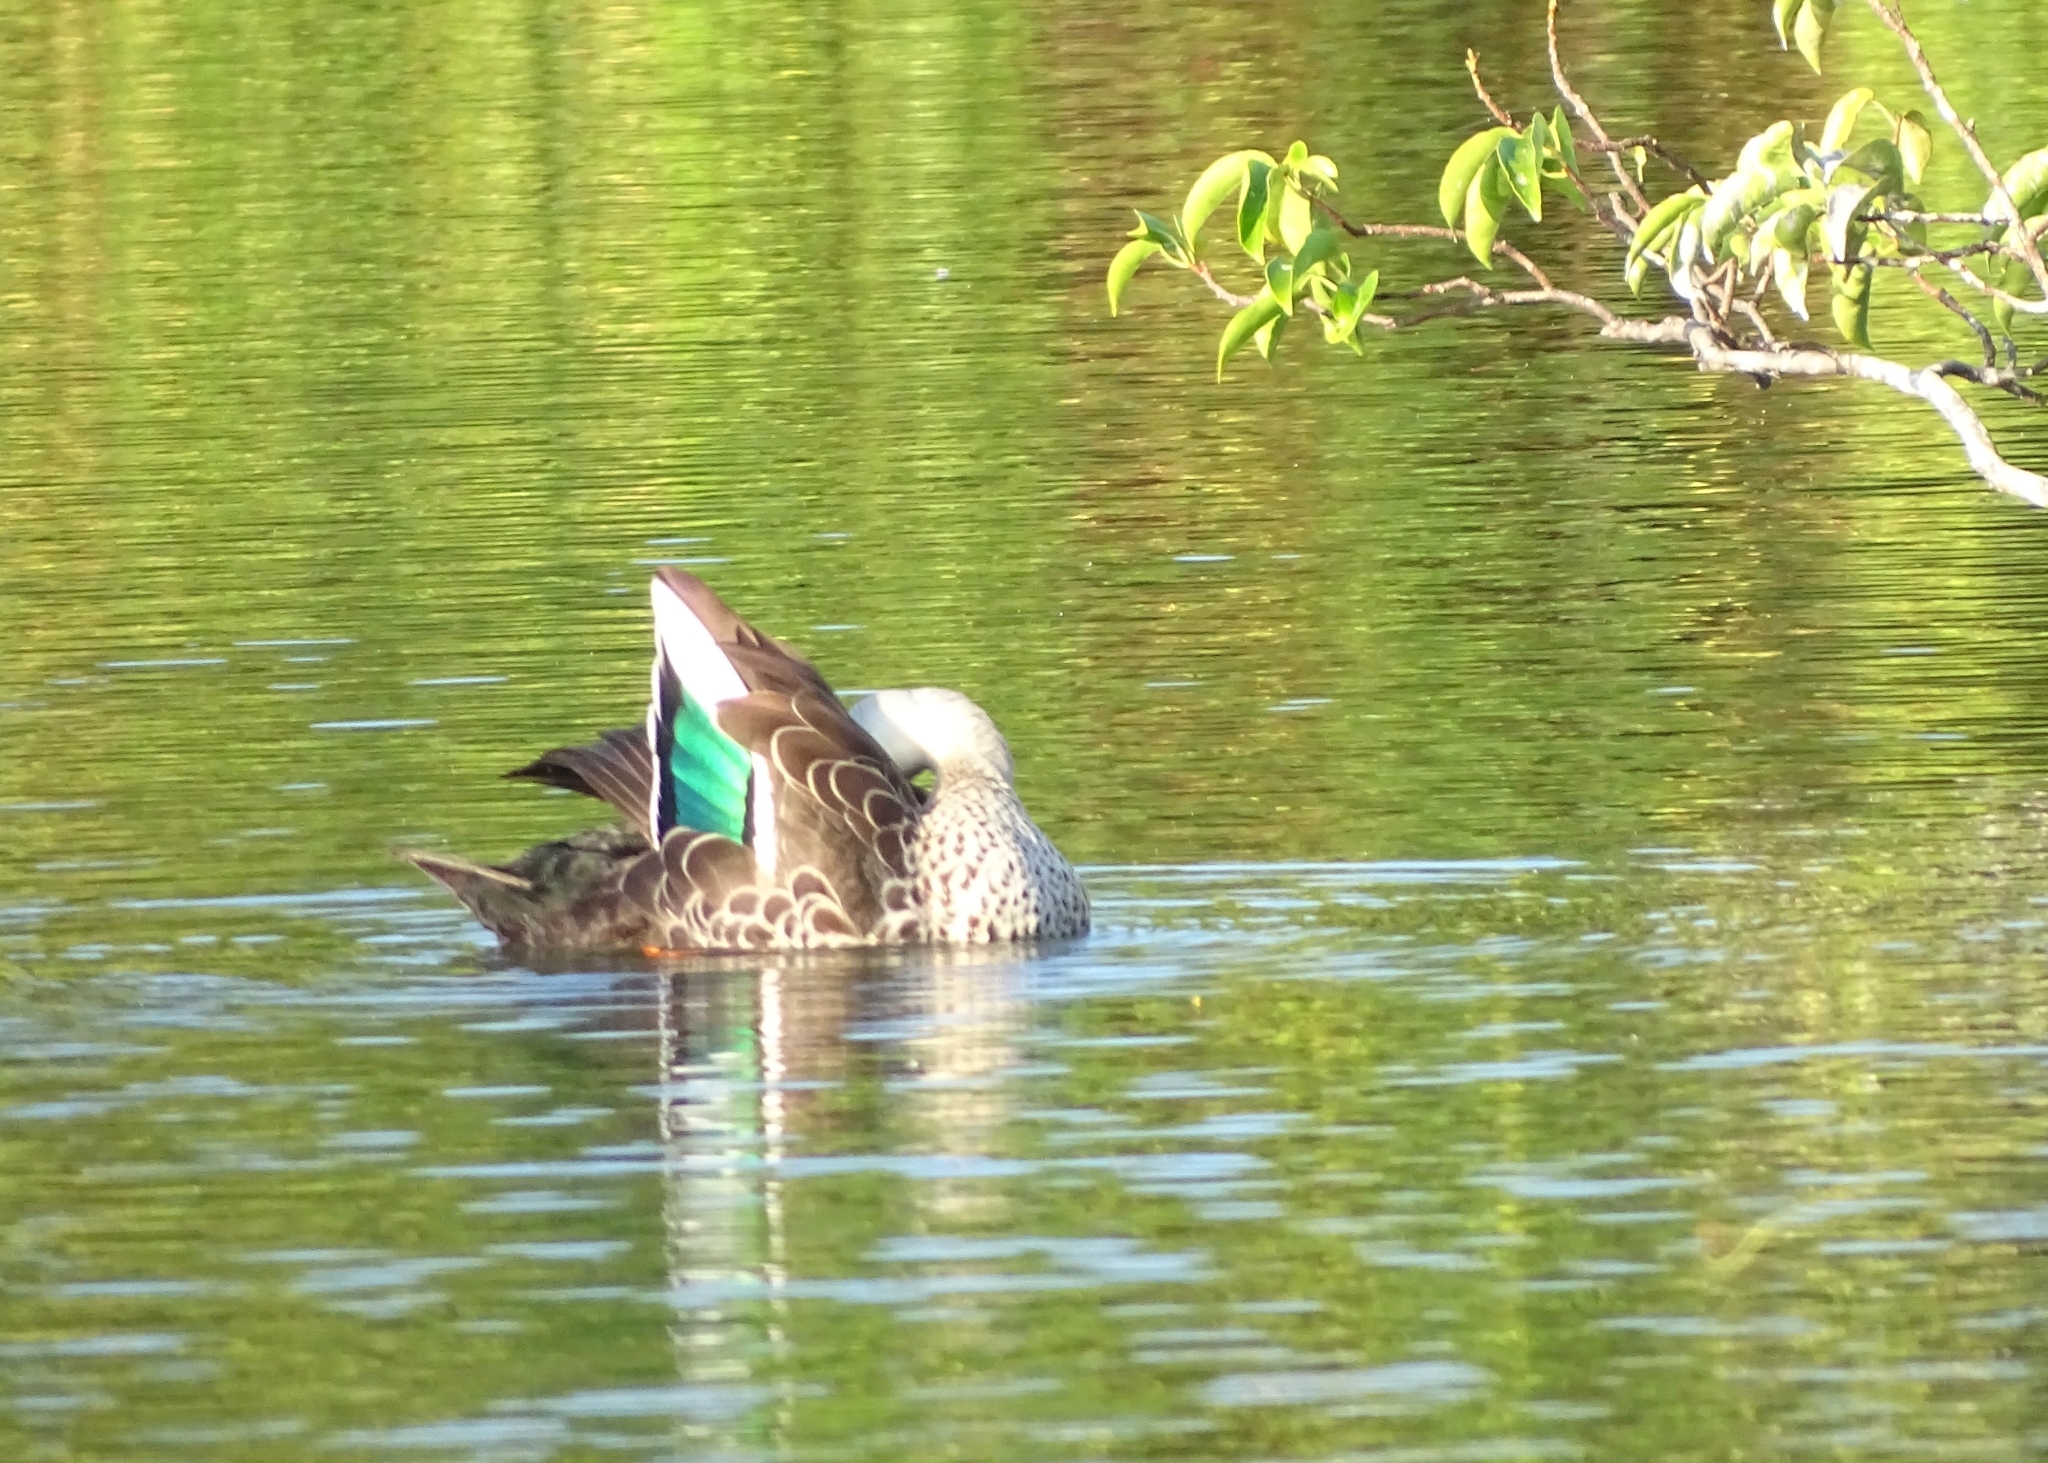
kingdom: Animalia
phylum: Chordata
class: Aves
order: Anseriformes
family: Anatidae
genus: Anas
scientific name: Anas poecilorhyncha
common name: Indian spot-billed duck
